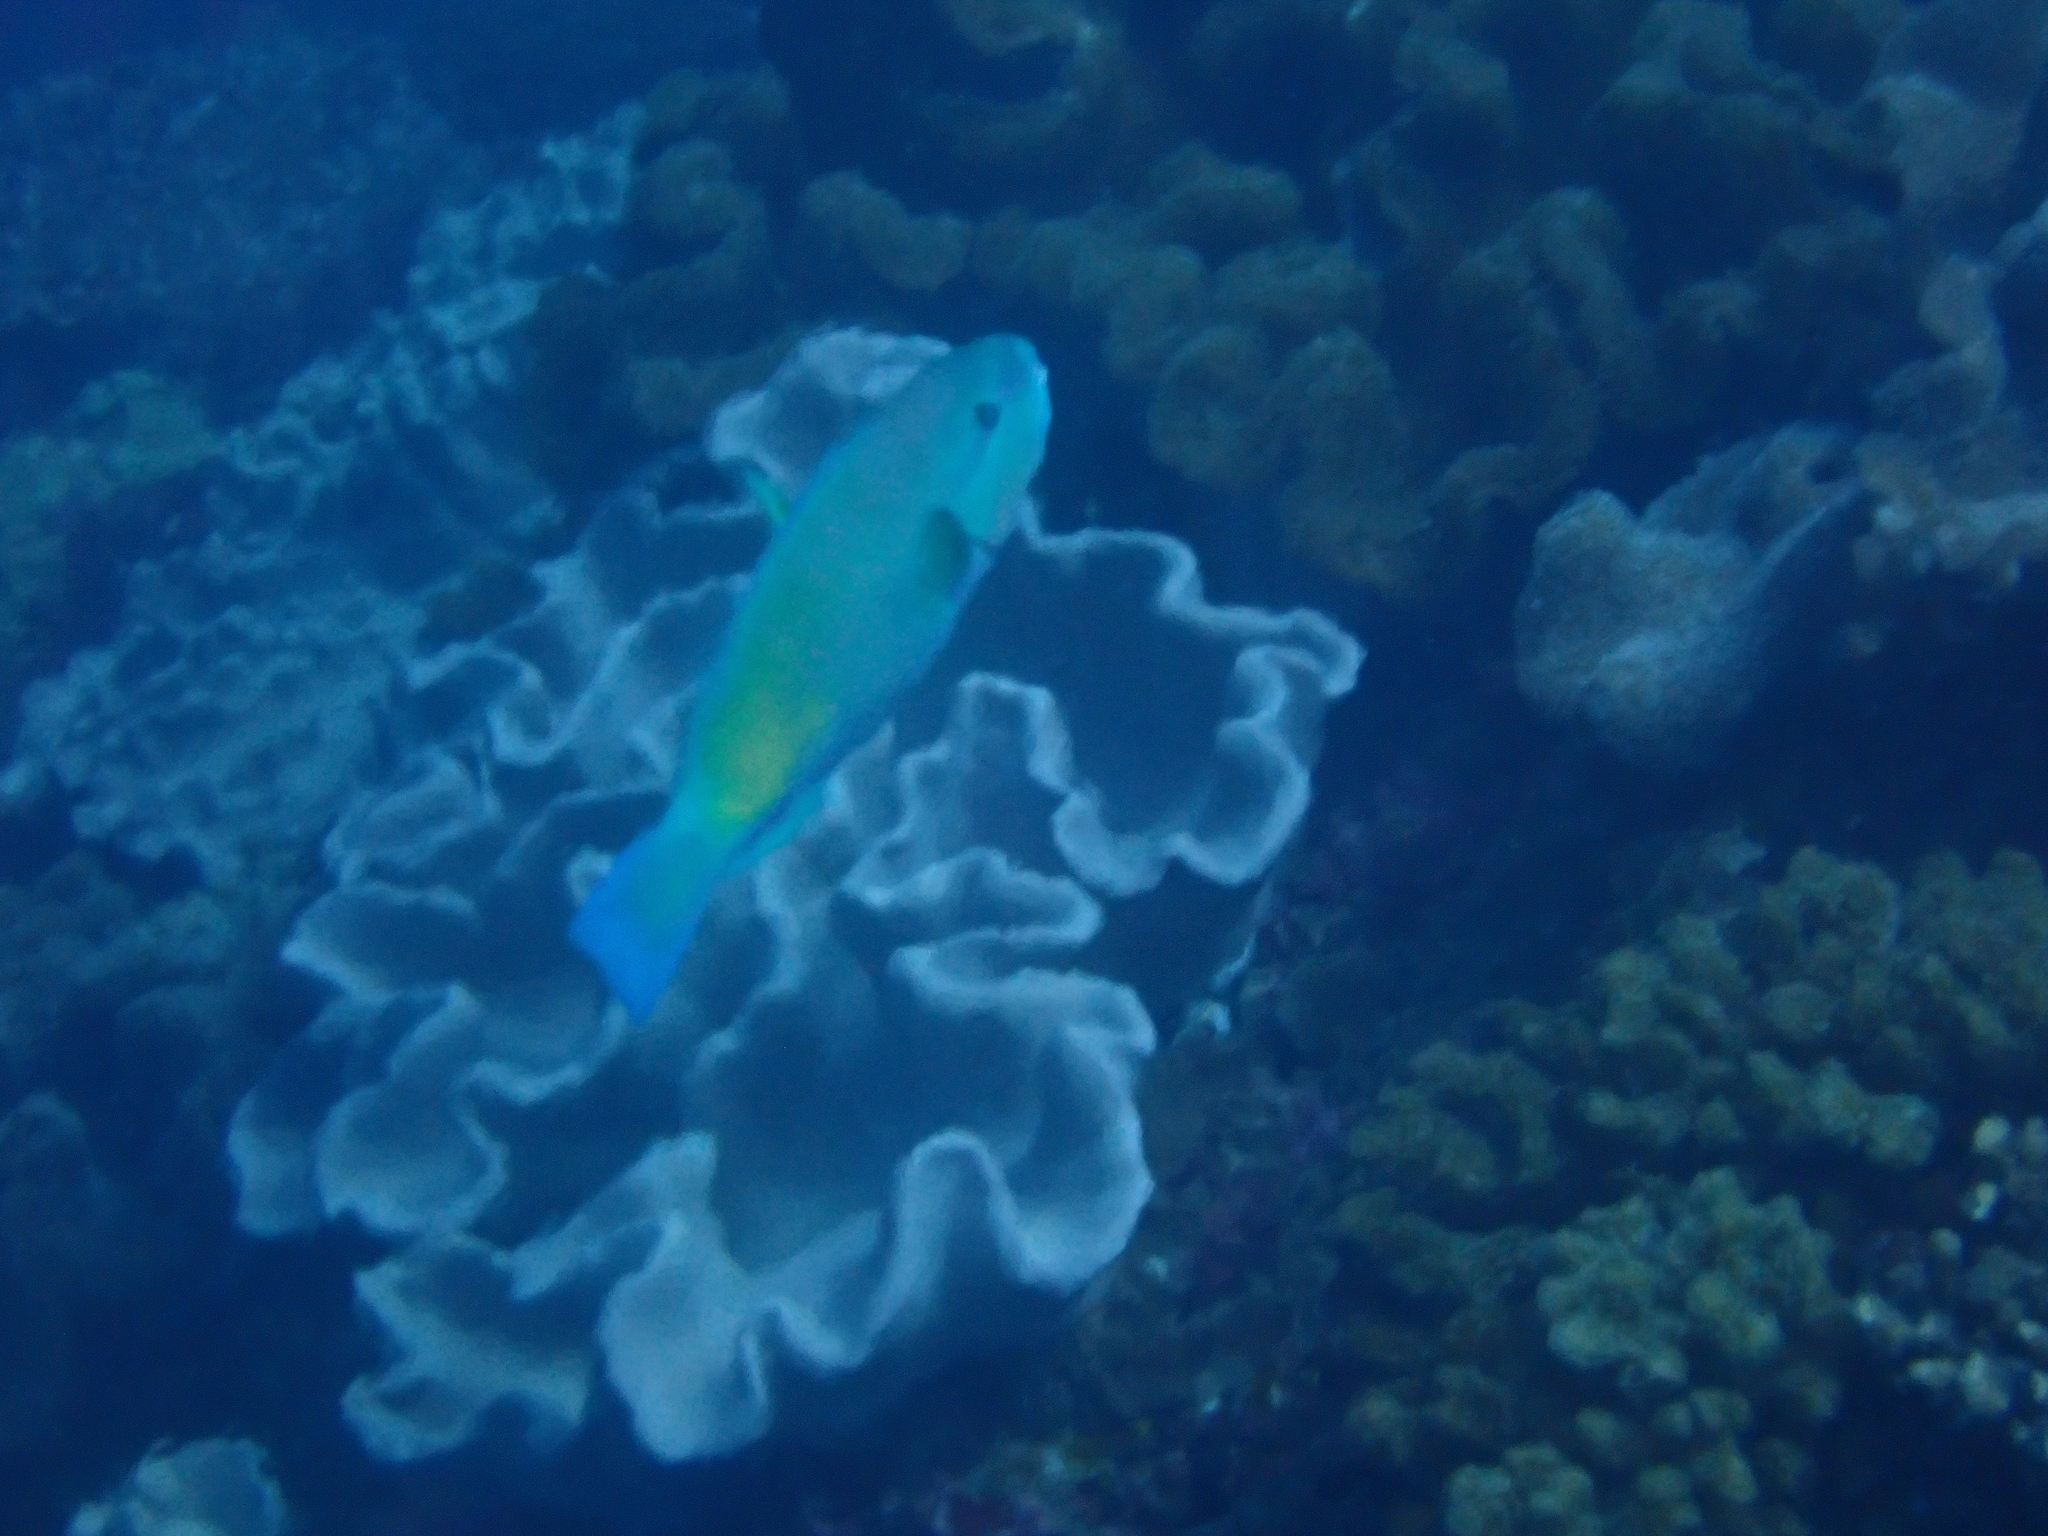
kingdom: Animalia
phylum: Chordata
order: Perciformes
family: Scaridae
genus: Chlorurus
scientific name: Chlorurus spilurus
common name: Bullethead parrotfish
